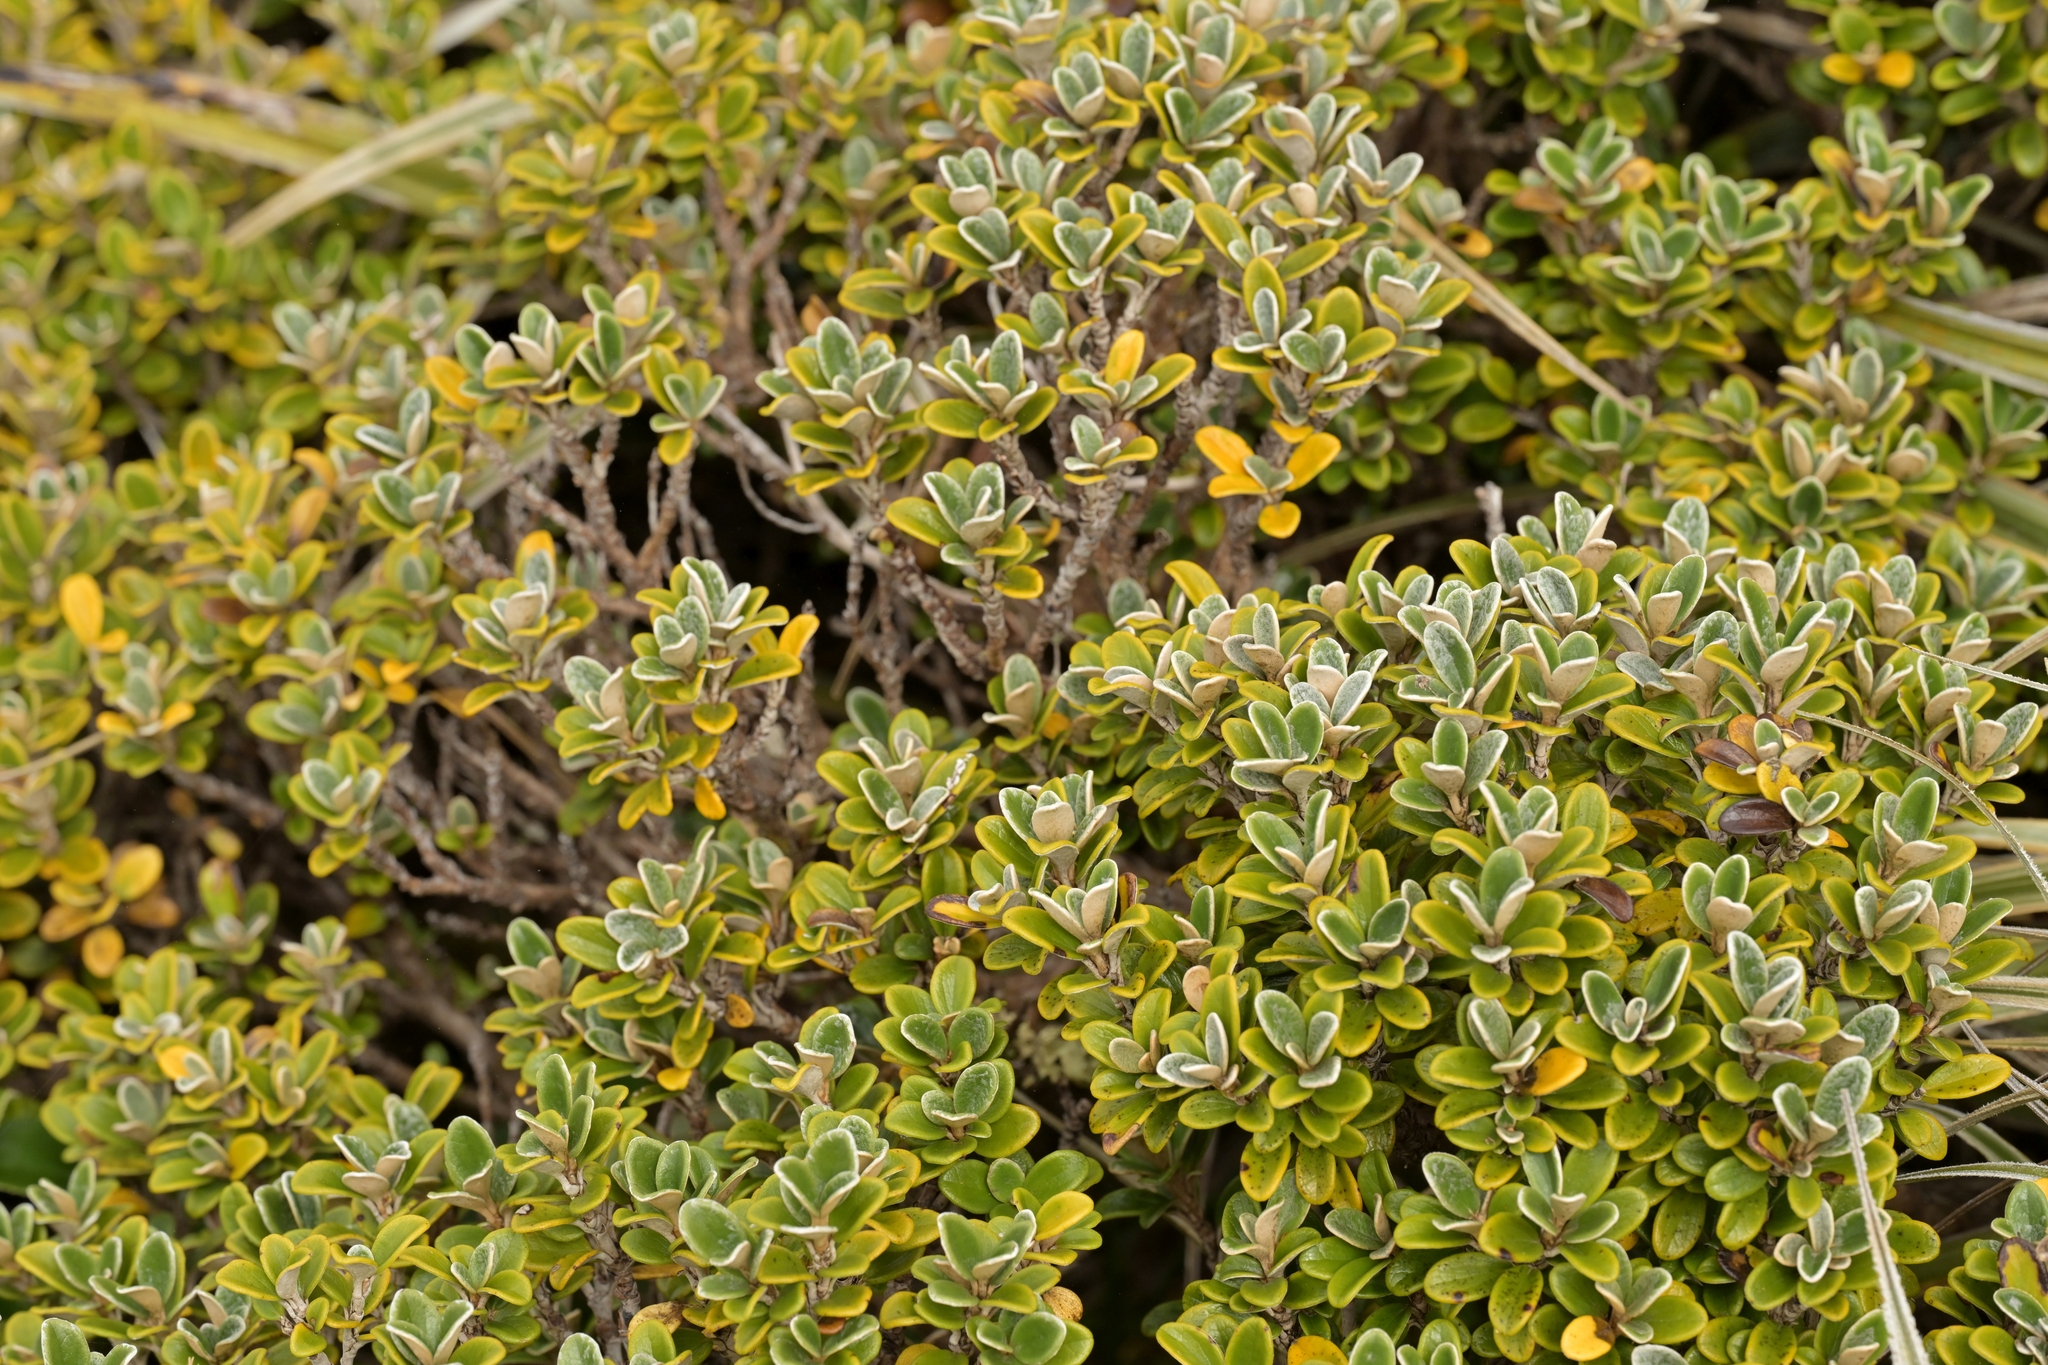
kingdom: Plantae
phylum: Tracheophyta
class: Magnoliopsida
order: Asterales
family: Asteraceae
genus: Brachyglottis
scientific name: Brachyglottis bidwillii
